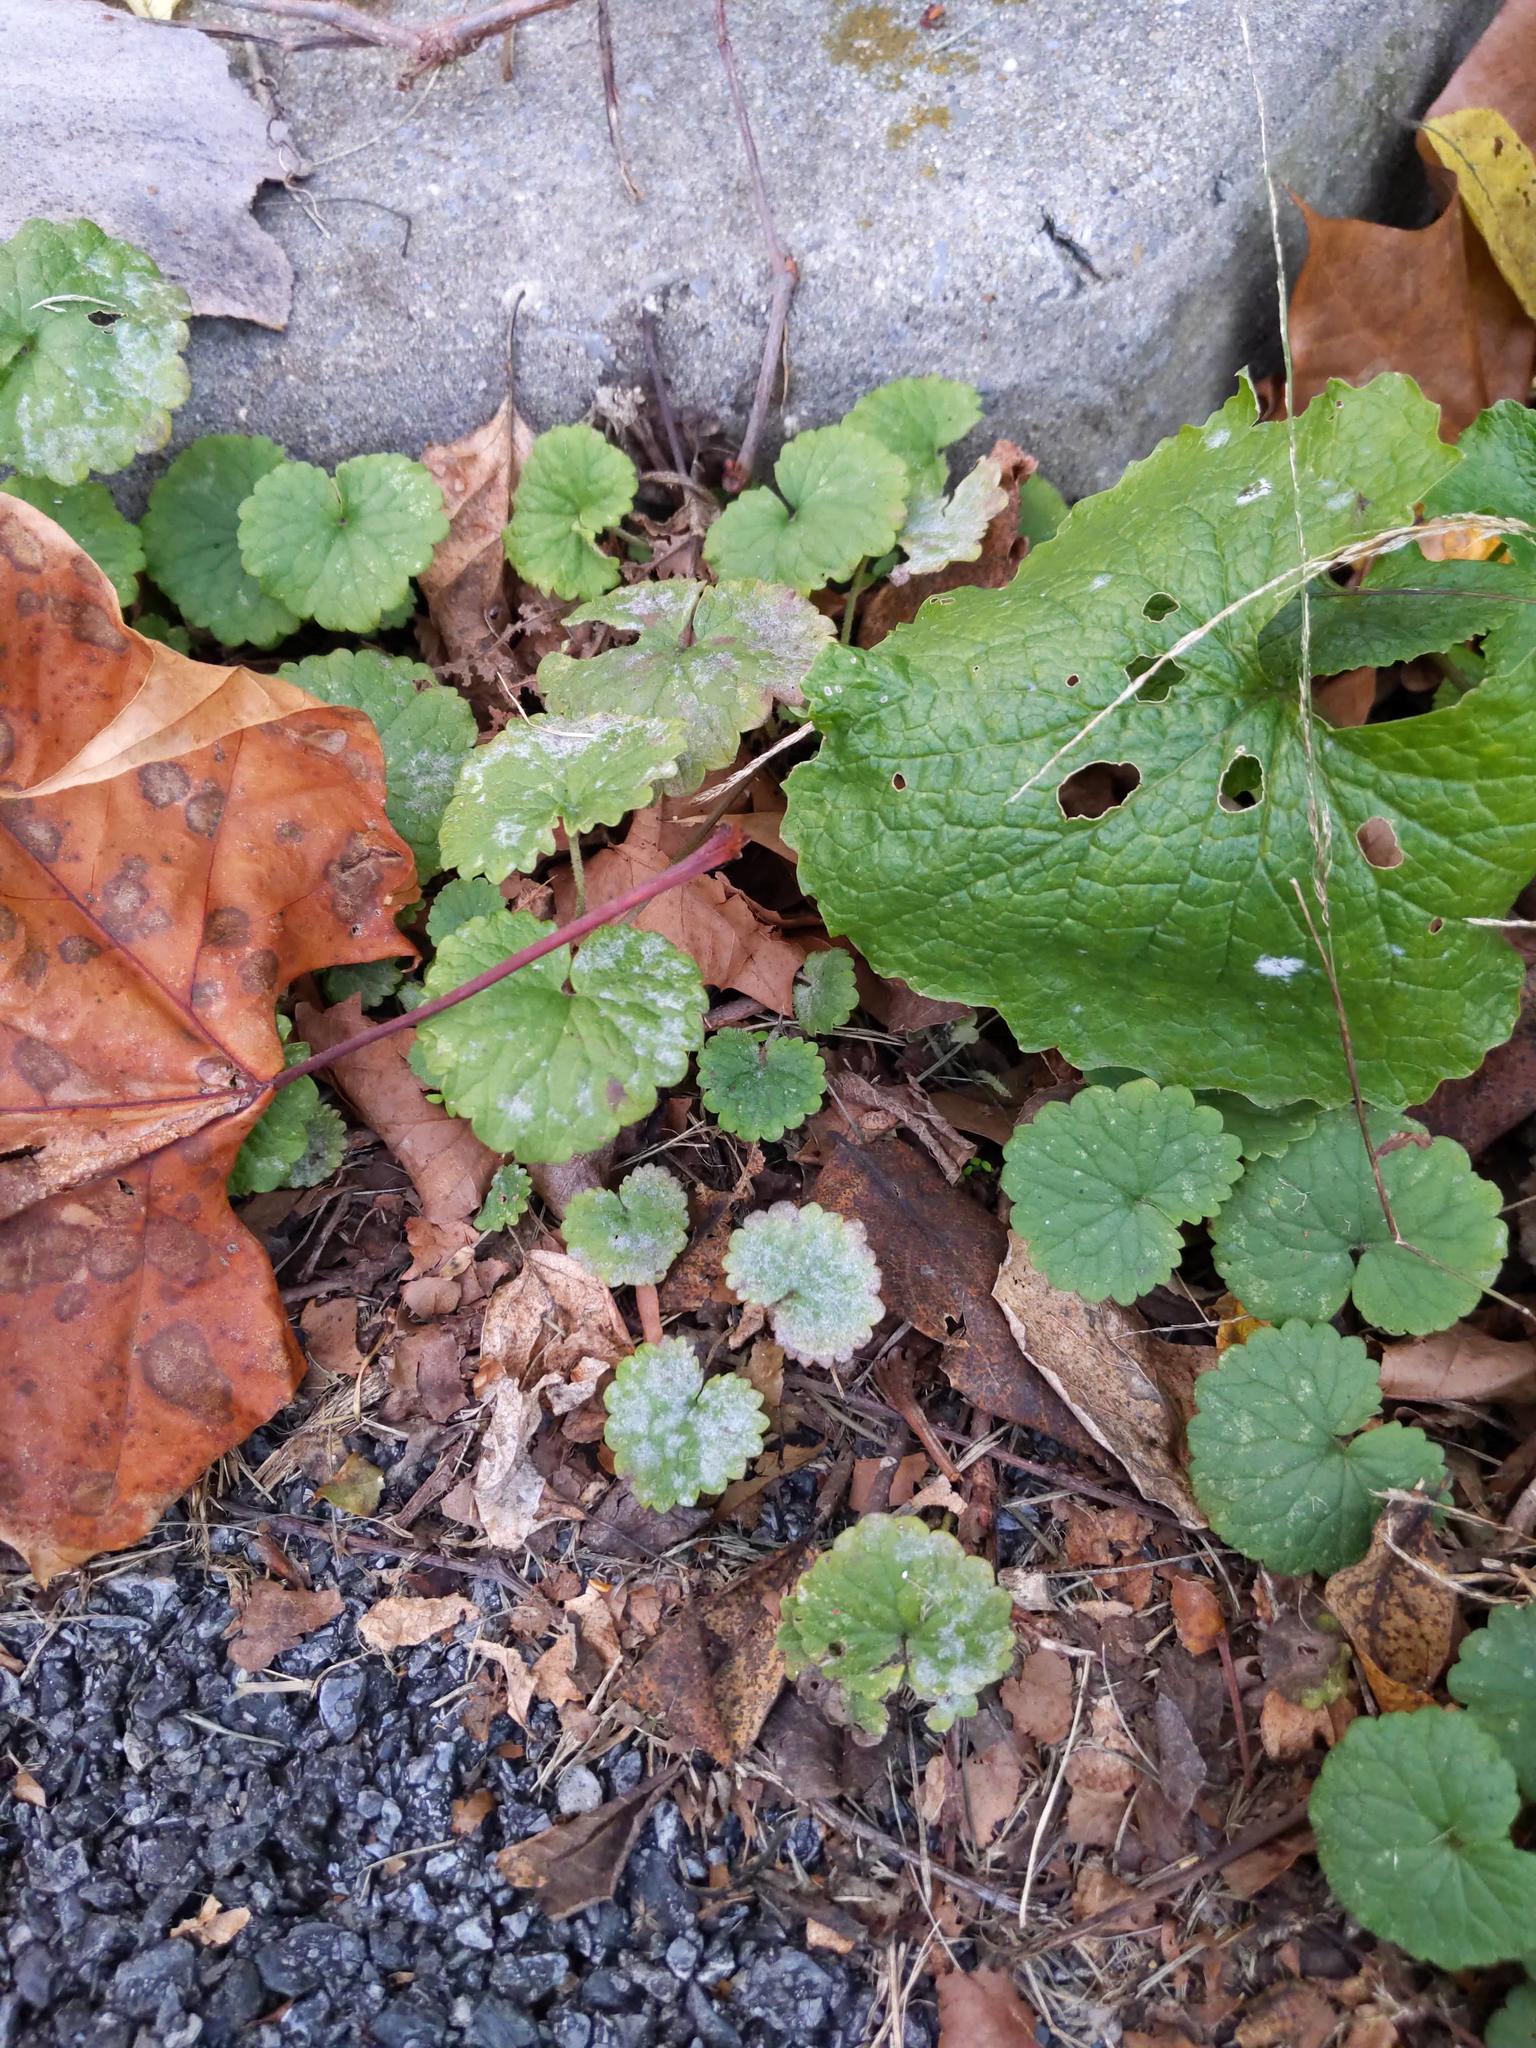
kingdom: Plantae
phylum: Tracheophyta
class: Magnoliopsida
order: Lamiales
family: Lamiaceae
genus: Glechoma
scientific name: Glechoma hederacea
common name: Ground ivy
